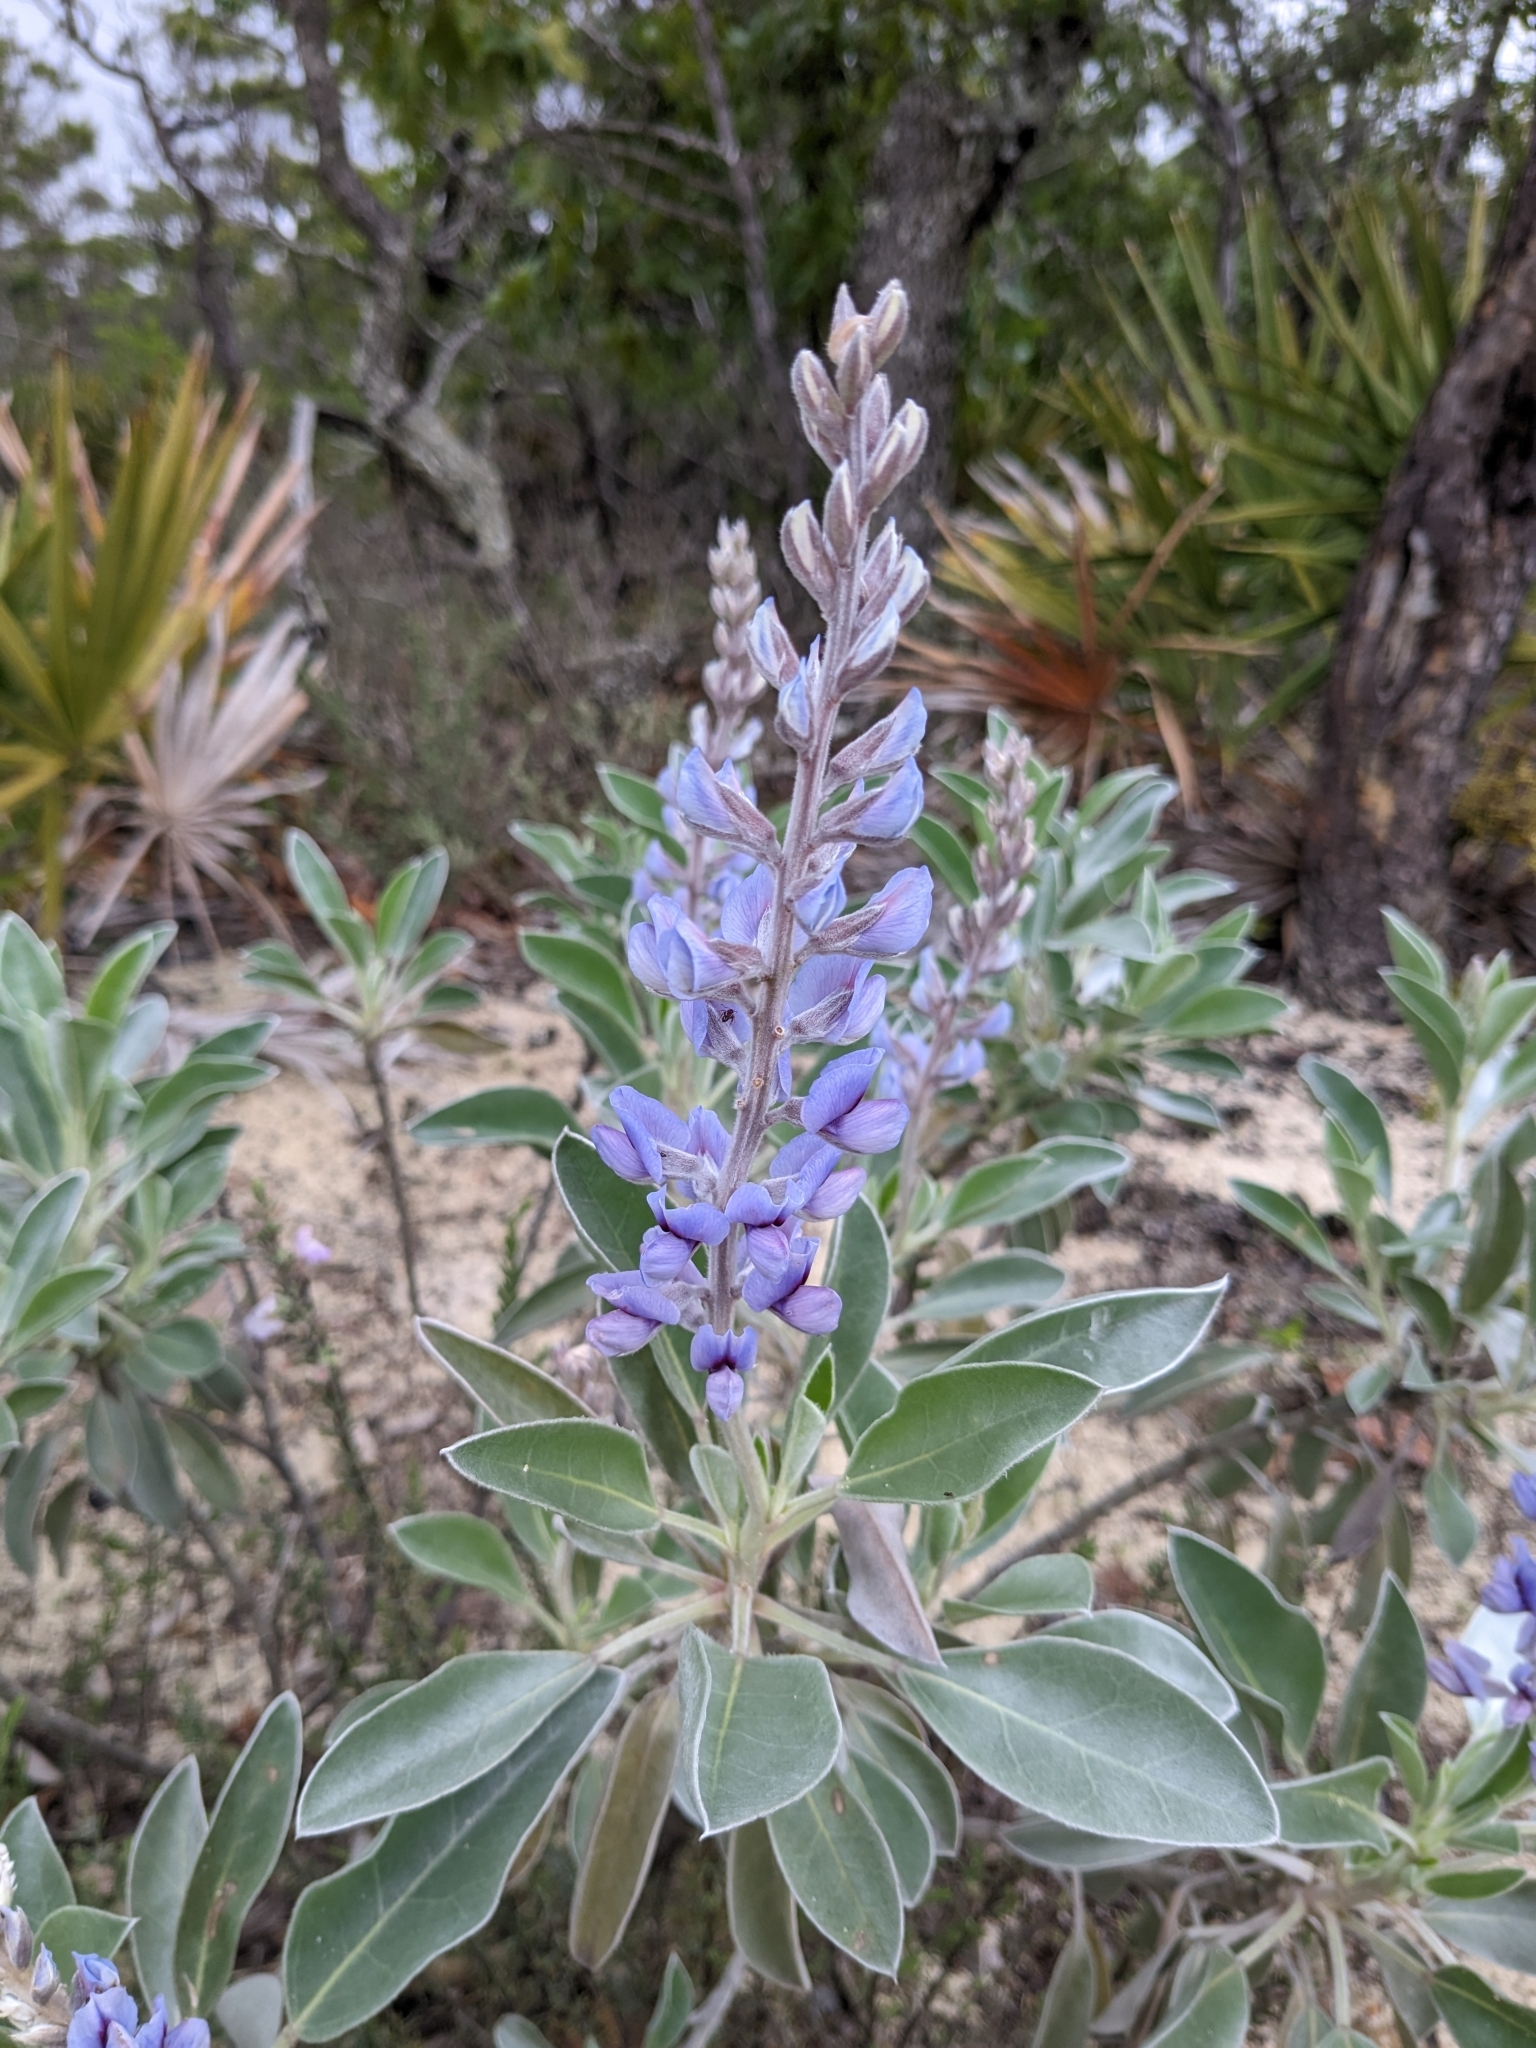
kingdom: Plantae
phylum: Tracheophyta
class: Magnoliopsida
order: Fabales
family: Fabaceae
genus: Lupinus
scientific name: Lupinus westianus
